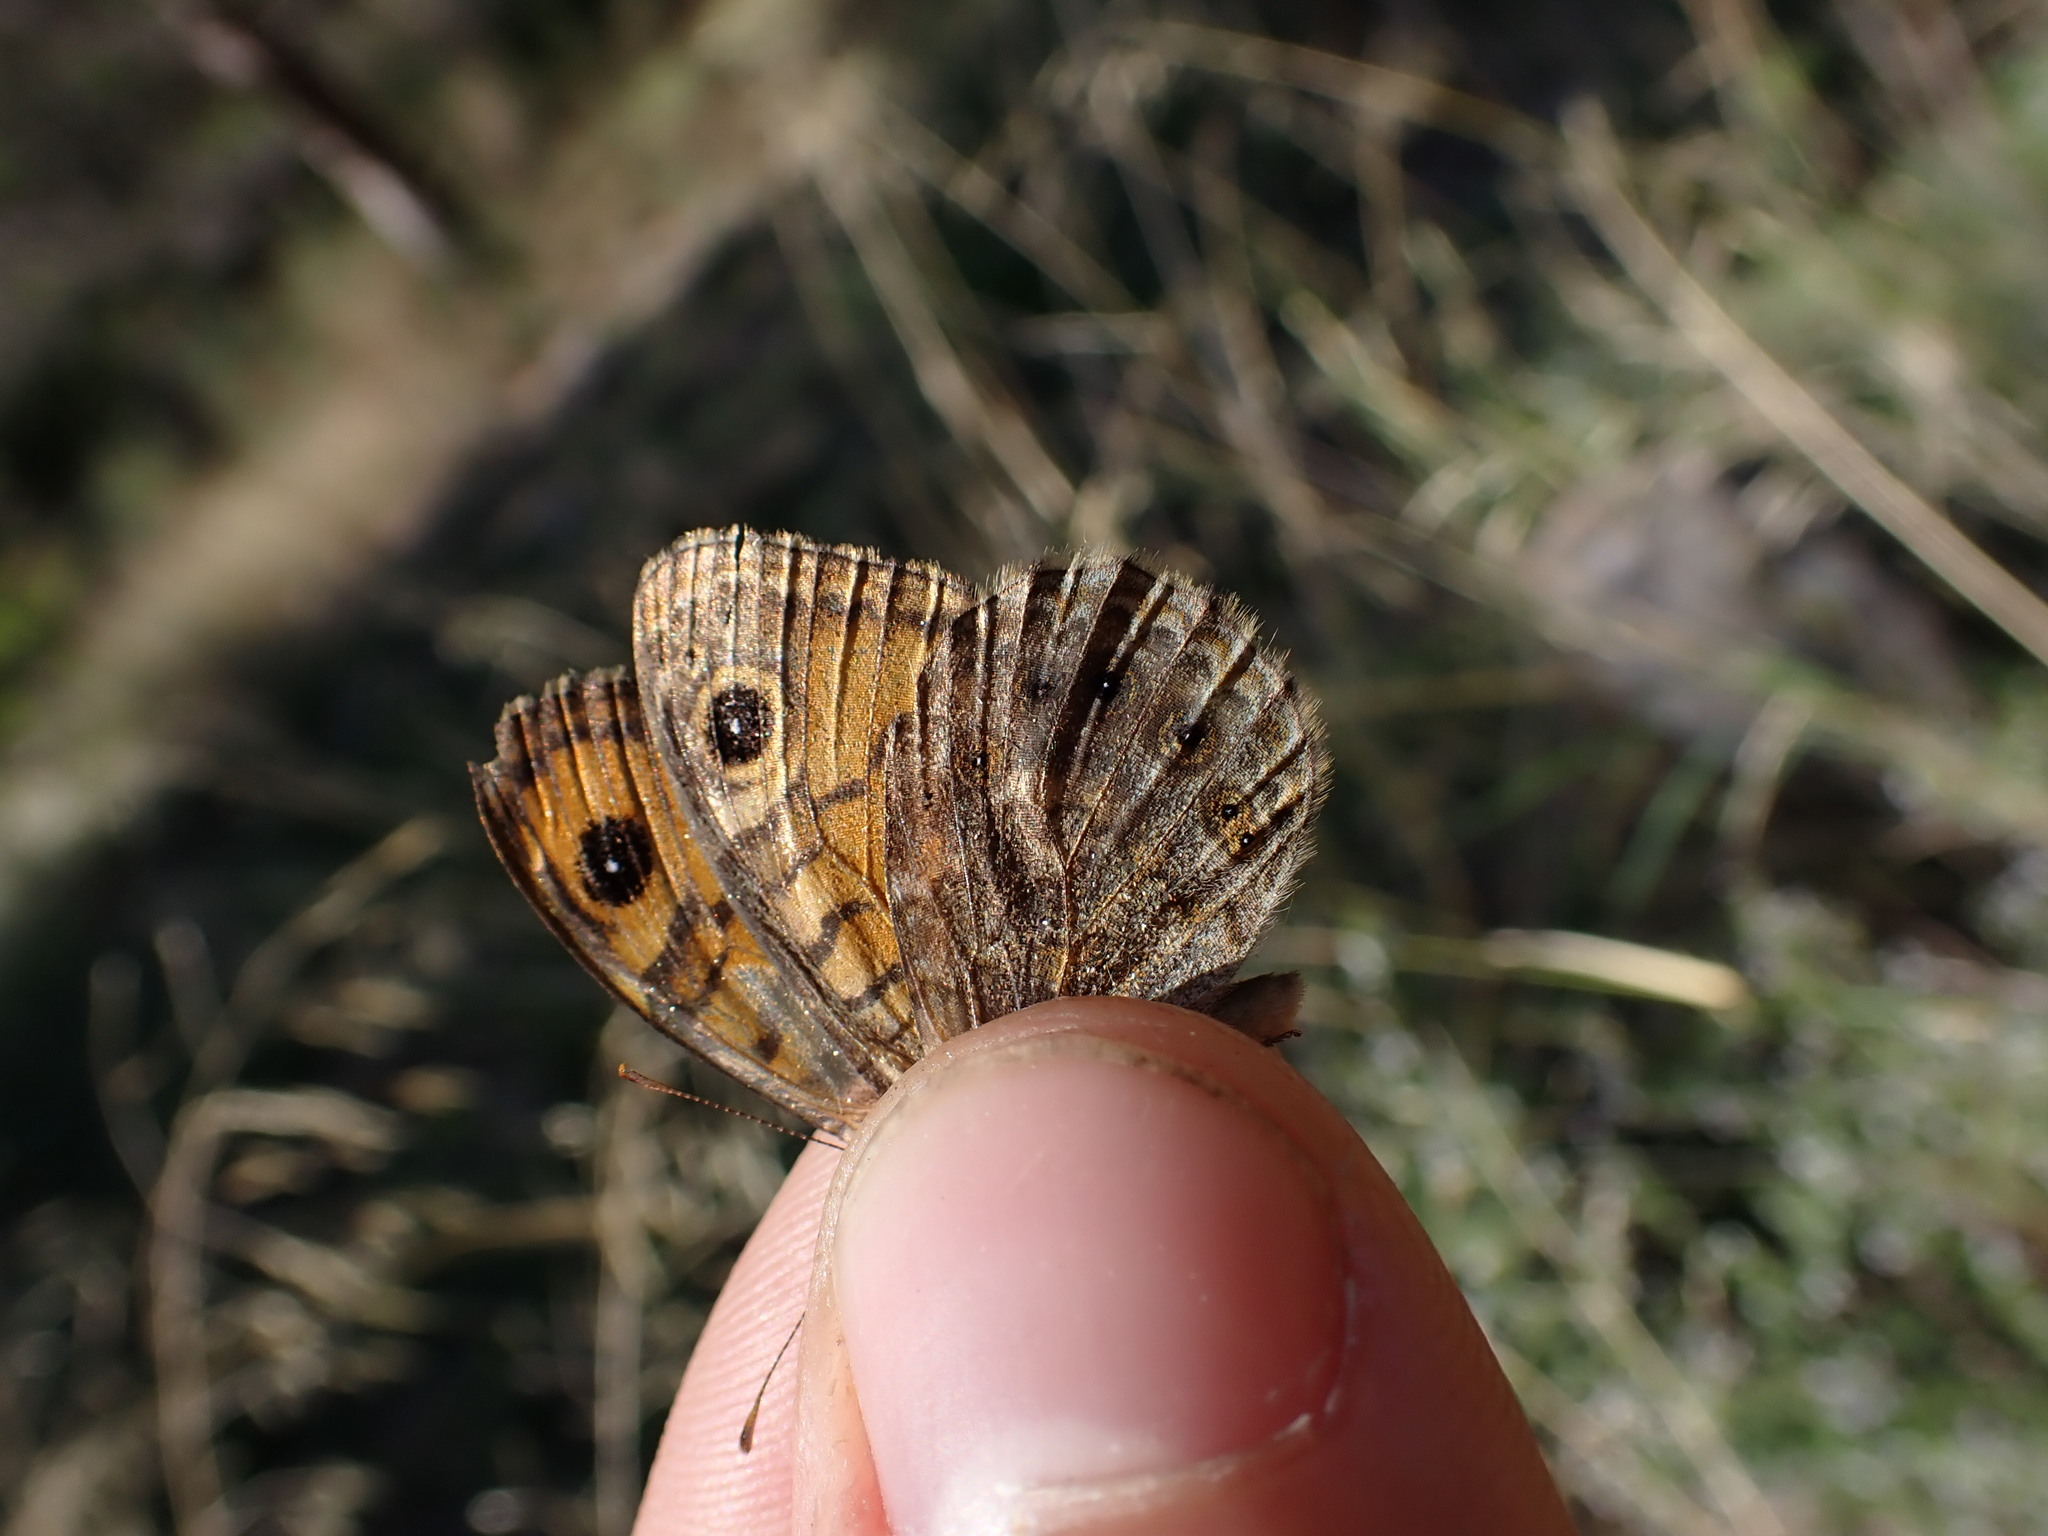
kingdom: Animalia
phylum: Arthropoda
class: Insecta
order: Lepidoptera
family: Nymphalidae
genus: Pararge
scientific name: Pararge Lasiommata megera
